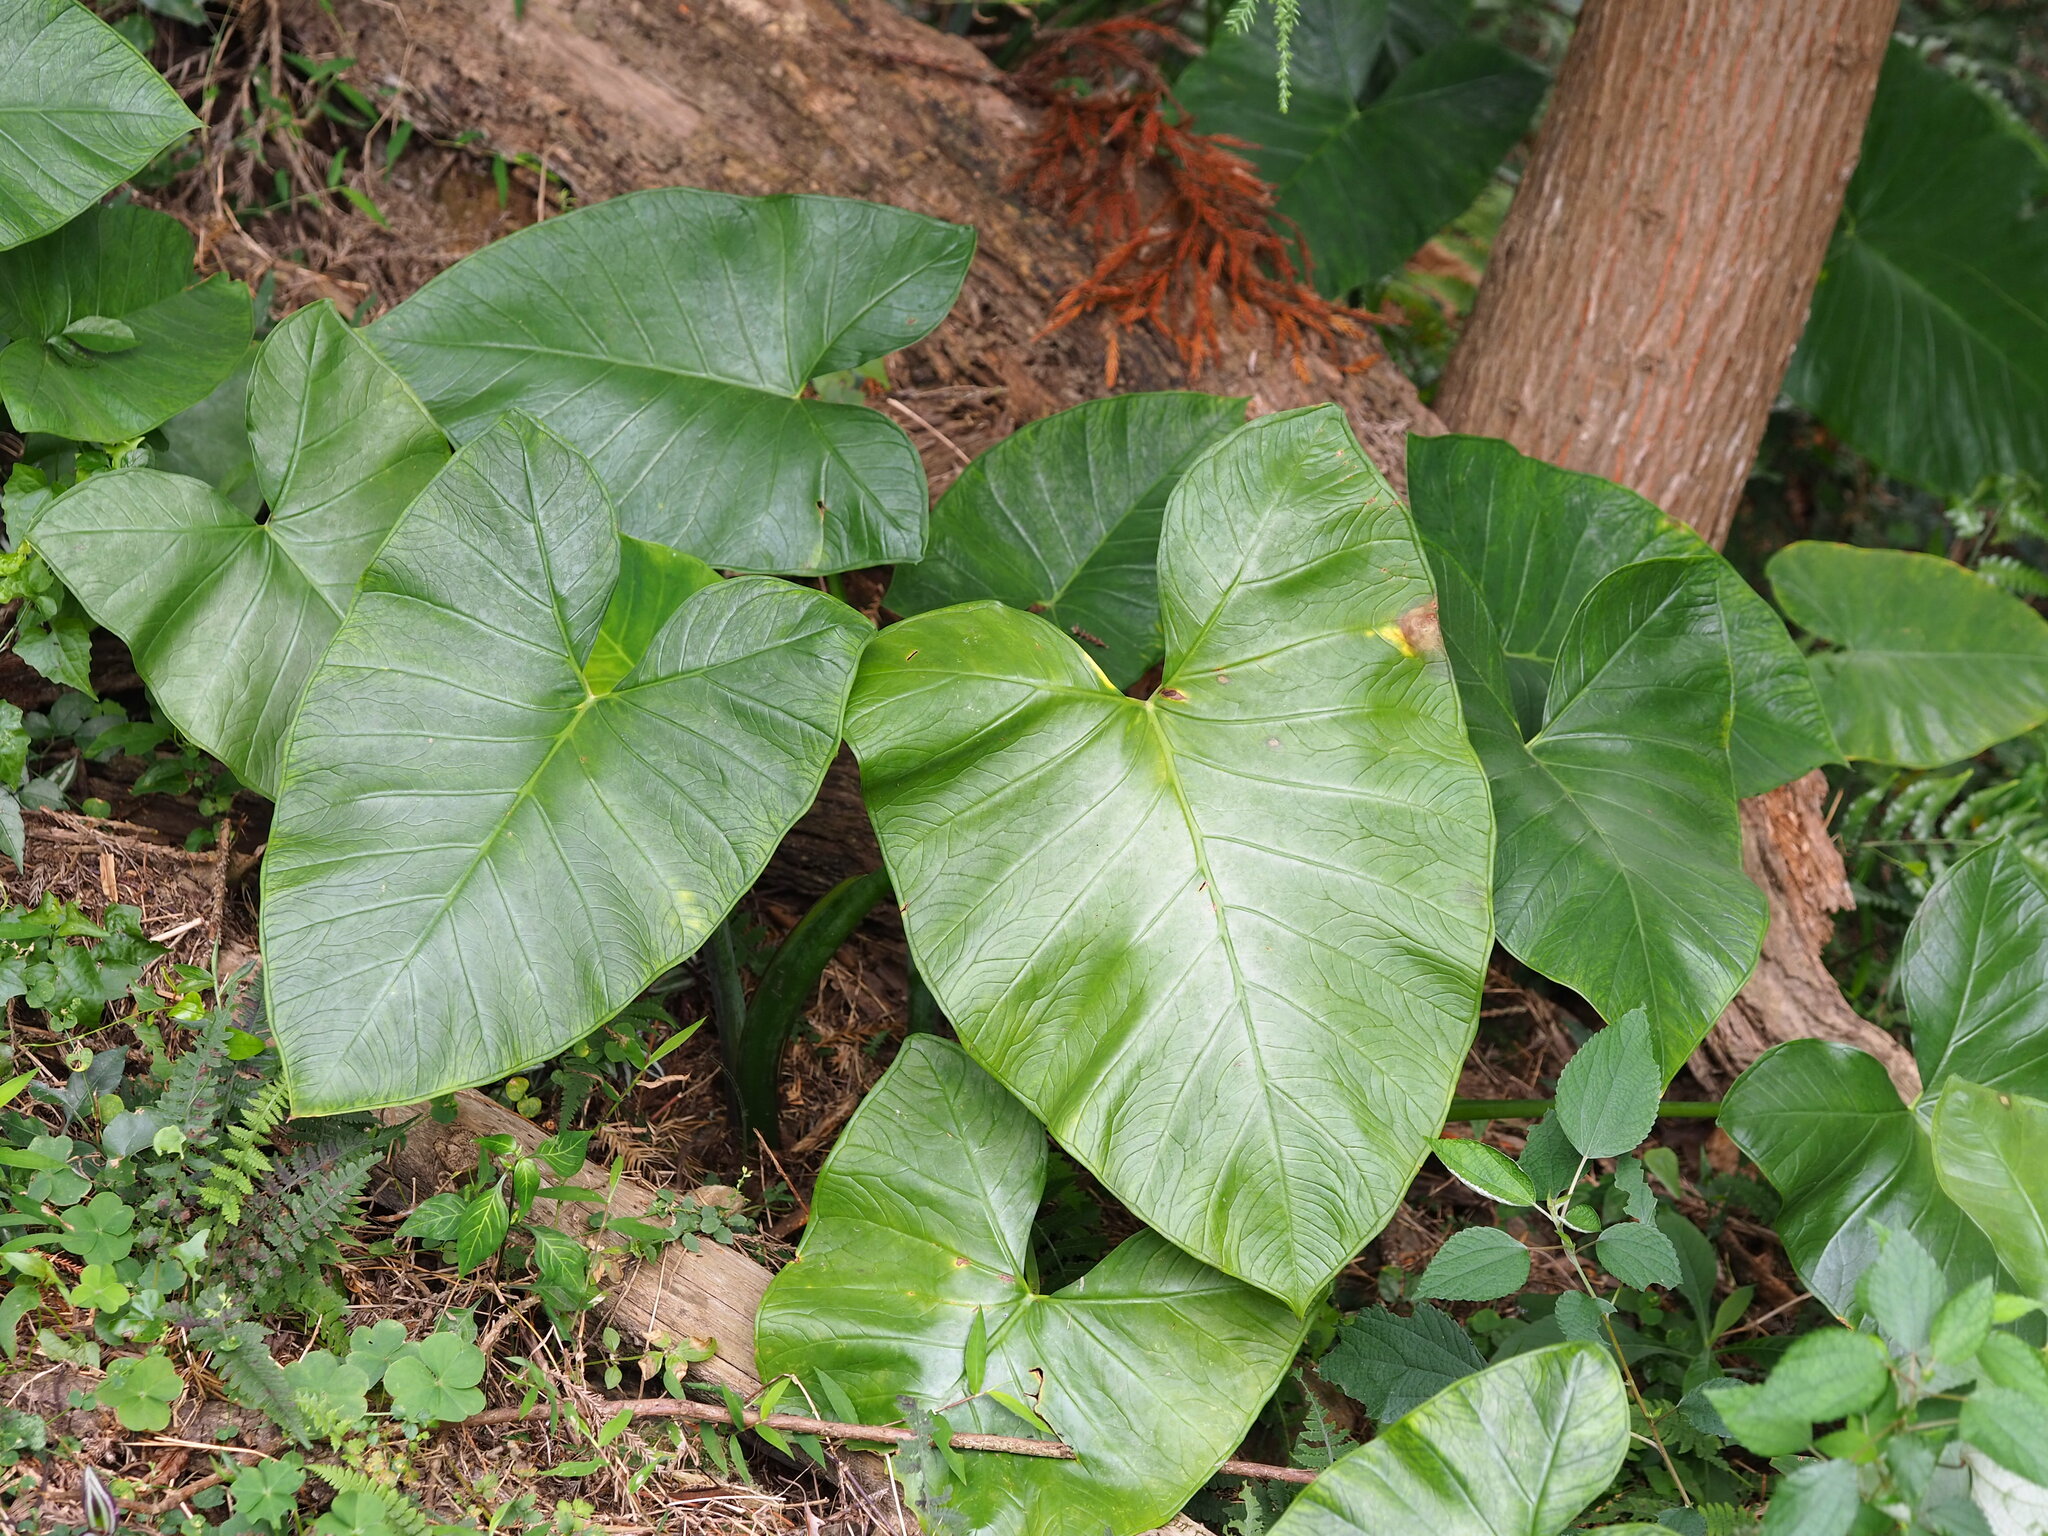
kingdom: Plantae
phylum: Tracheophyta
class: Liliopsida
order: Alismatales
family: Araceae
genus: Xanthosoma
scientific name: Xanthosoma sagittifolium
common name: Arrowleaf elephant's ear
